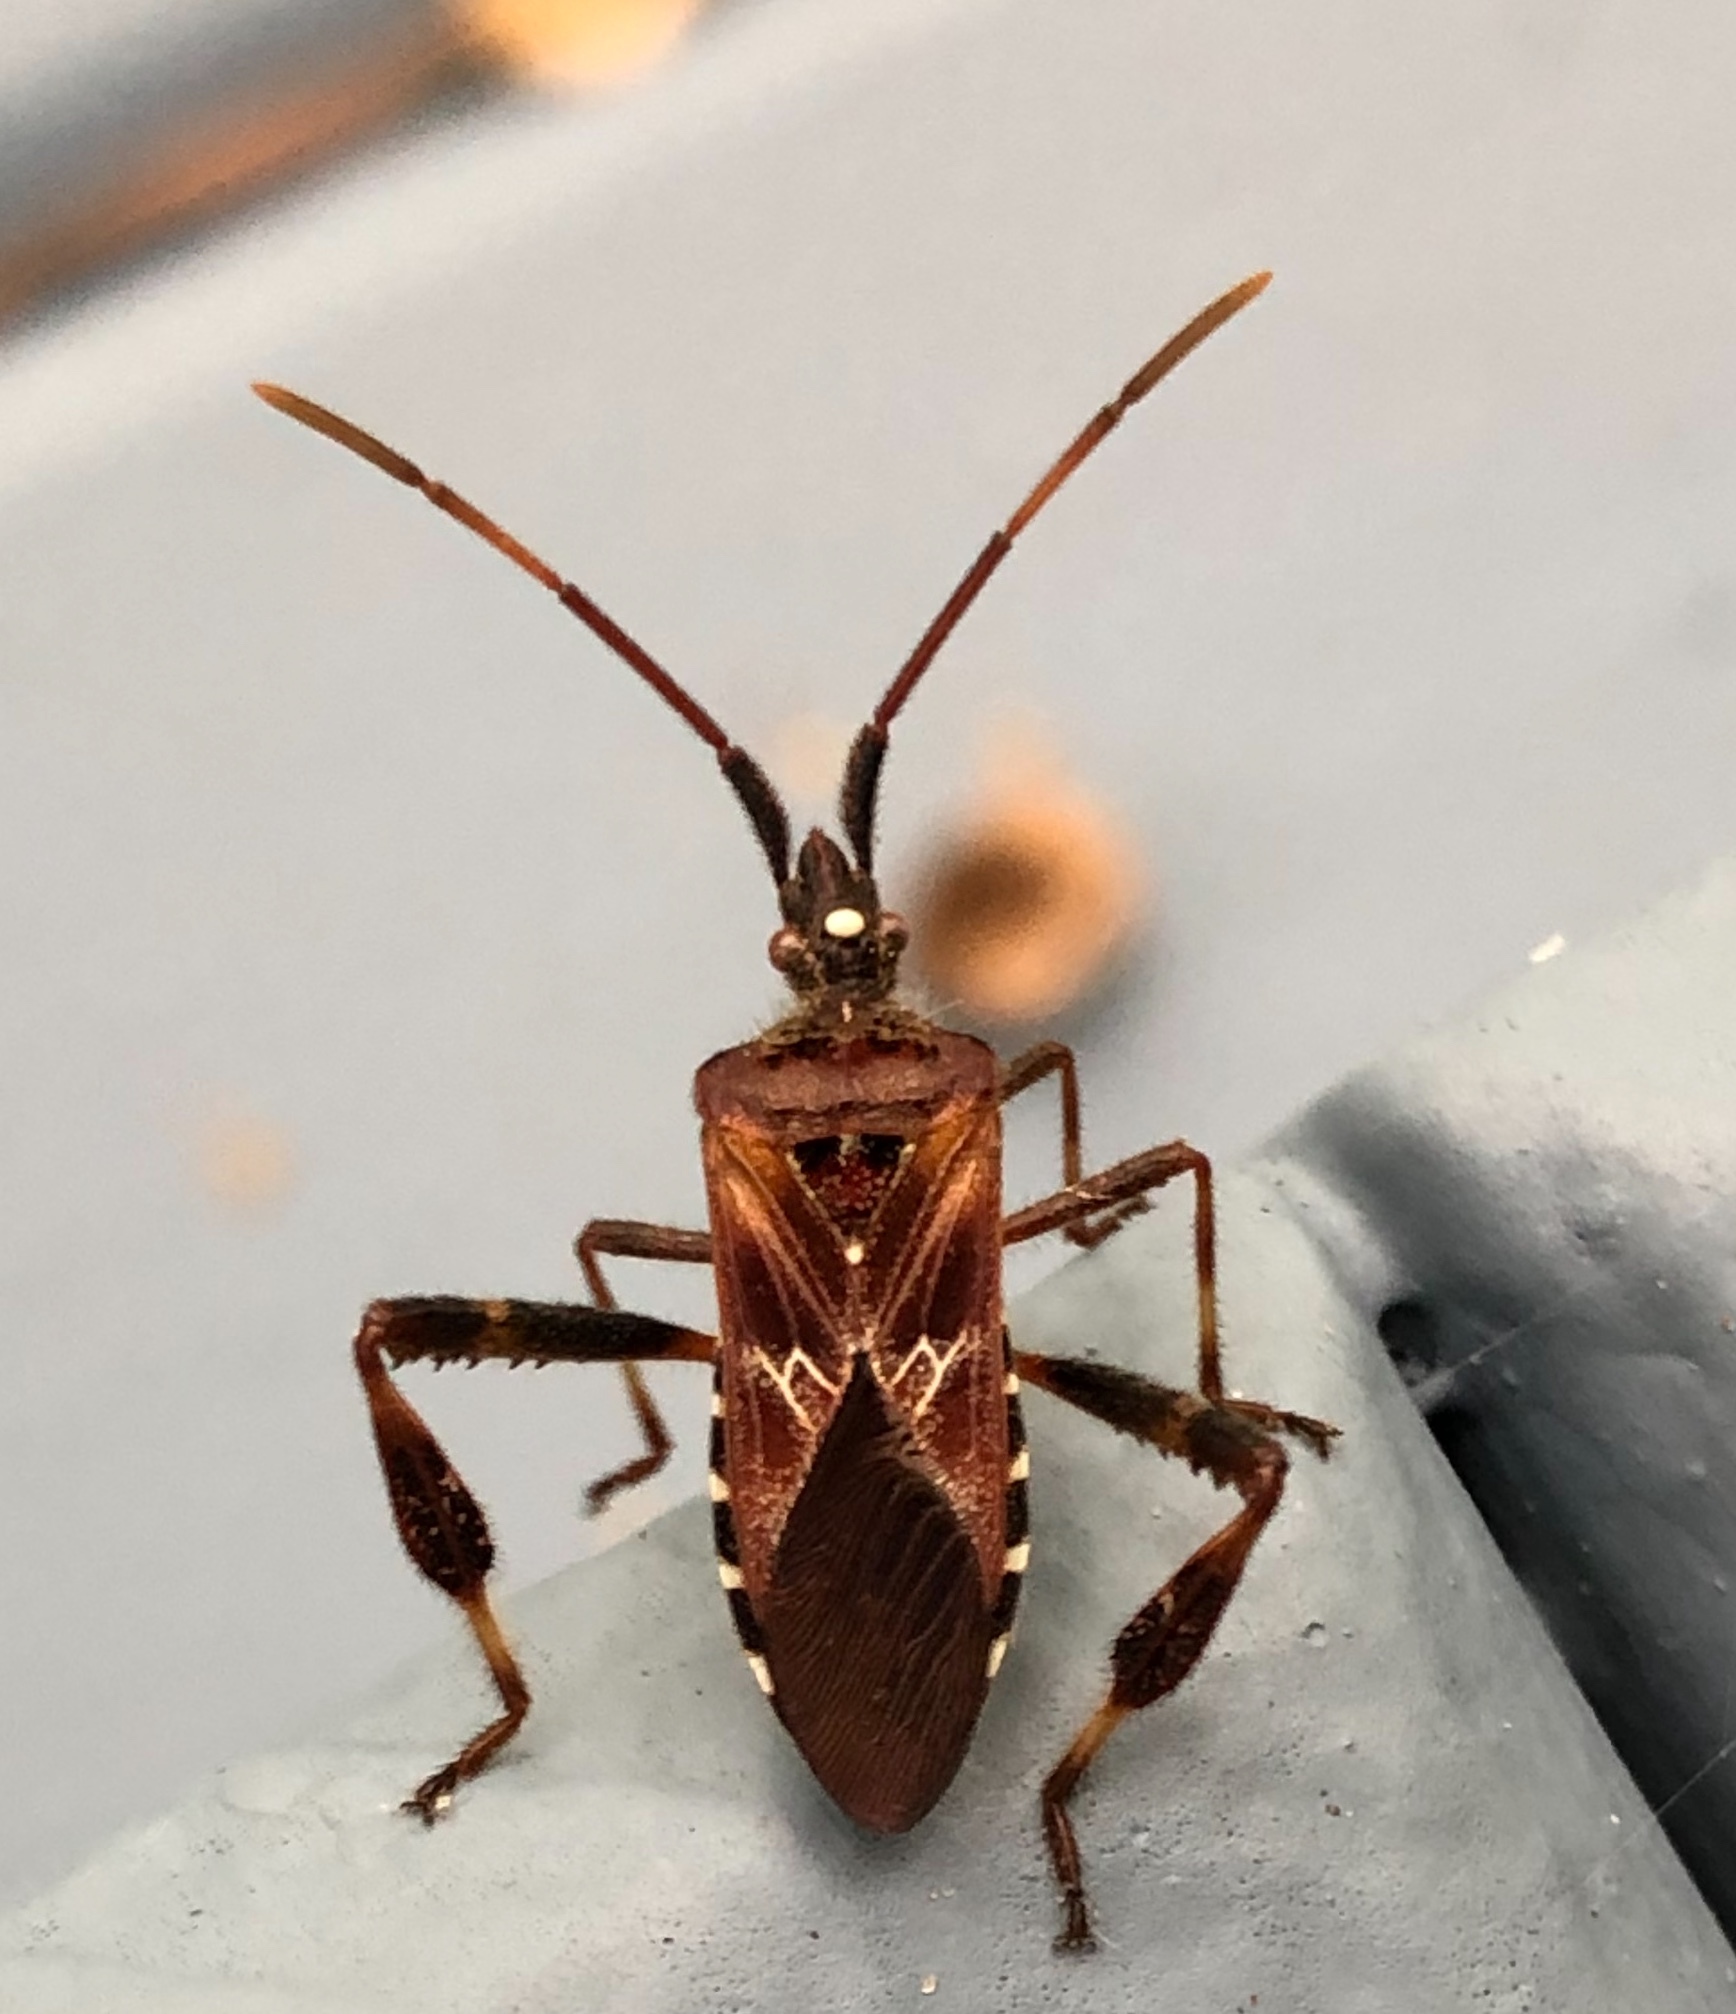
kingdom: Animalia
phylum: Arthropoda
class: Insecta
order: Hemiptera
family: Coreidae
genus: Leptoglossus
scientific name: Leptoglossus occidentalis
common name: Western conifer-seed bug
